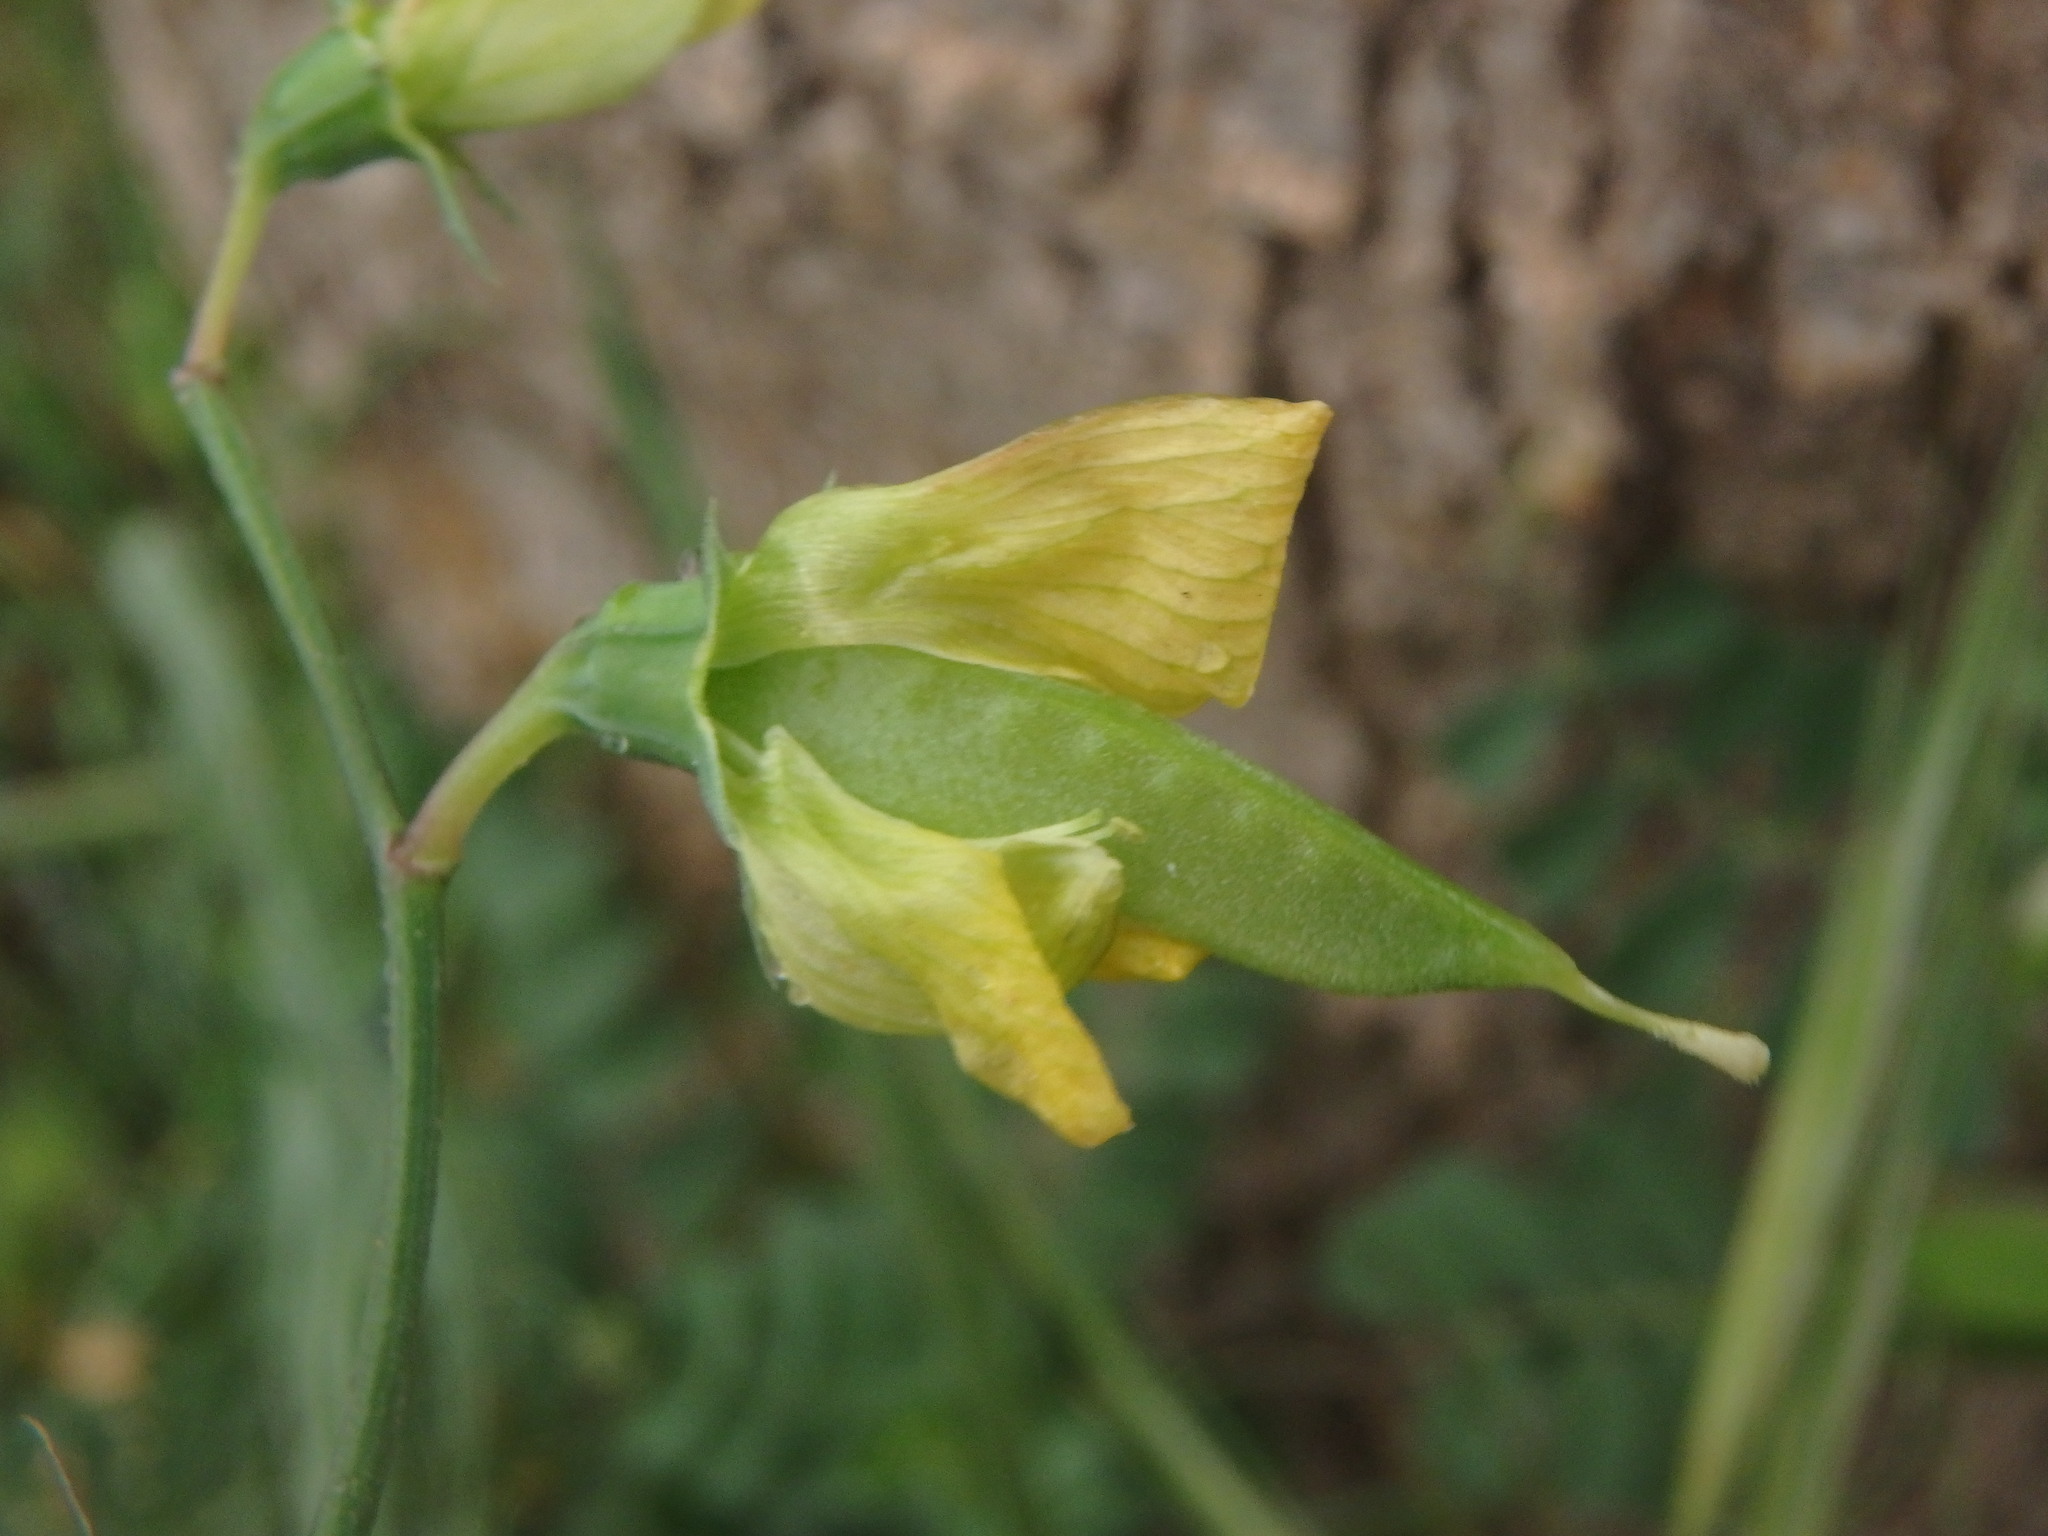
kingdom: Plantae
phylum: Tracheophyta
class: Magnoliopsida
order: Fabales
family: Fabaceae
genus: Lathyrus
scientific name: Lathyrus annuus
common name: Fodder pea
